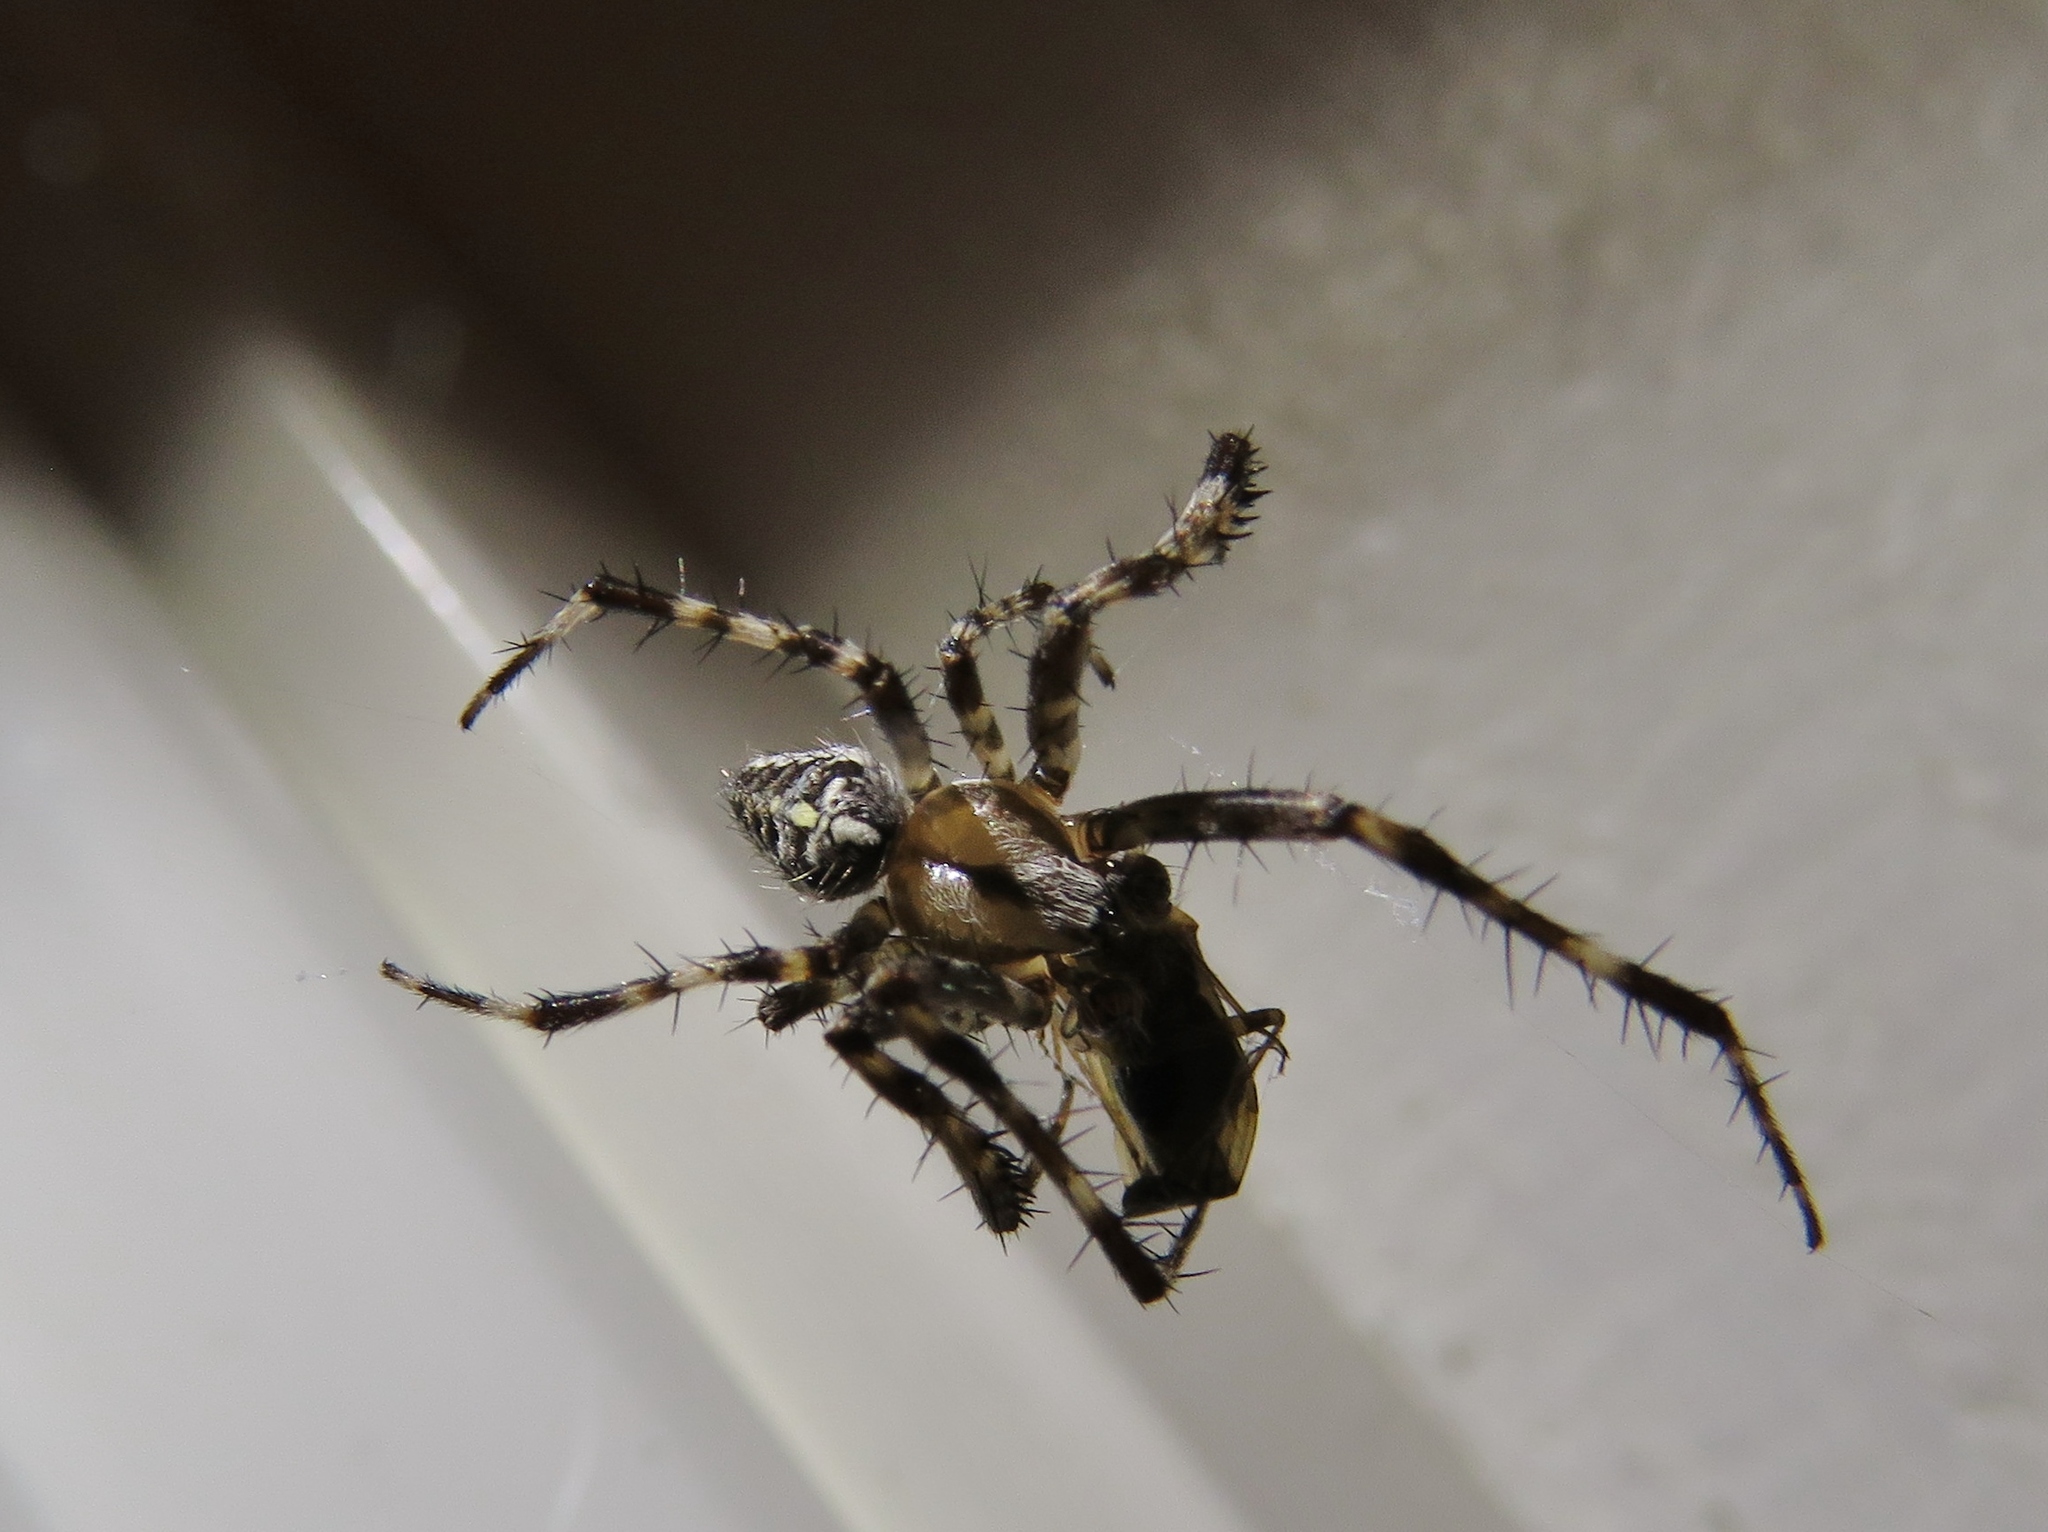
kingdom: Animalia
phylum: Arthropoda
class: Arachnida
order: Araneae
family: Araneidae
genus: Araneus
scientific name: Araneus diadematus
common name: Cross orbweaver
